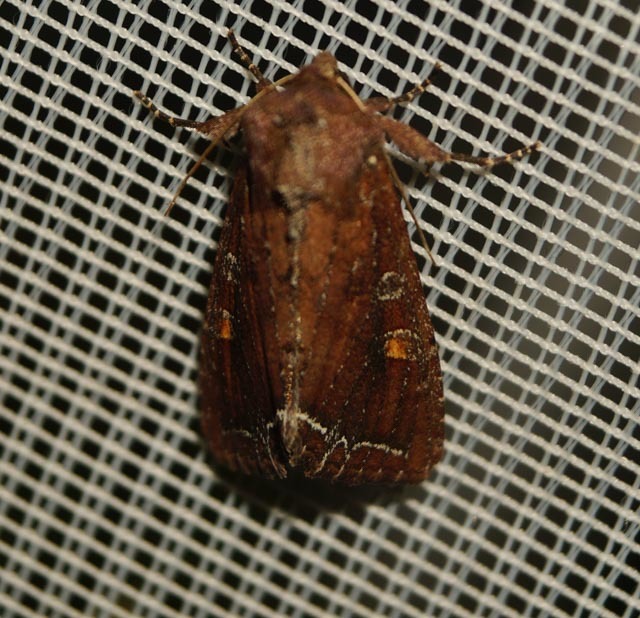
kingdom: Animalia
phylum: Arthropoda
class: Insecta
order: Lepidoptera
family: Noctuidae
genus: Lacanobia
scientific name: Lacanobia oleracea
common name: Bright-line brown-eye
